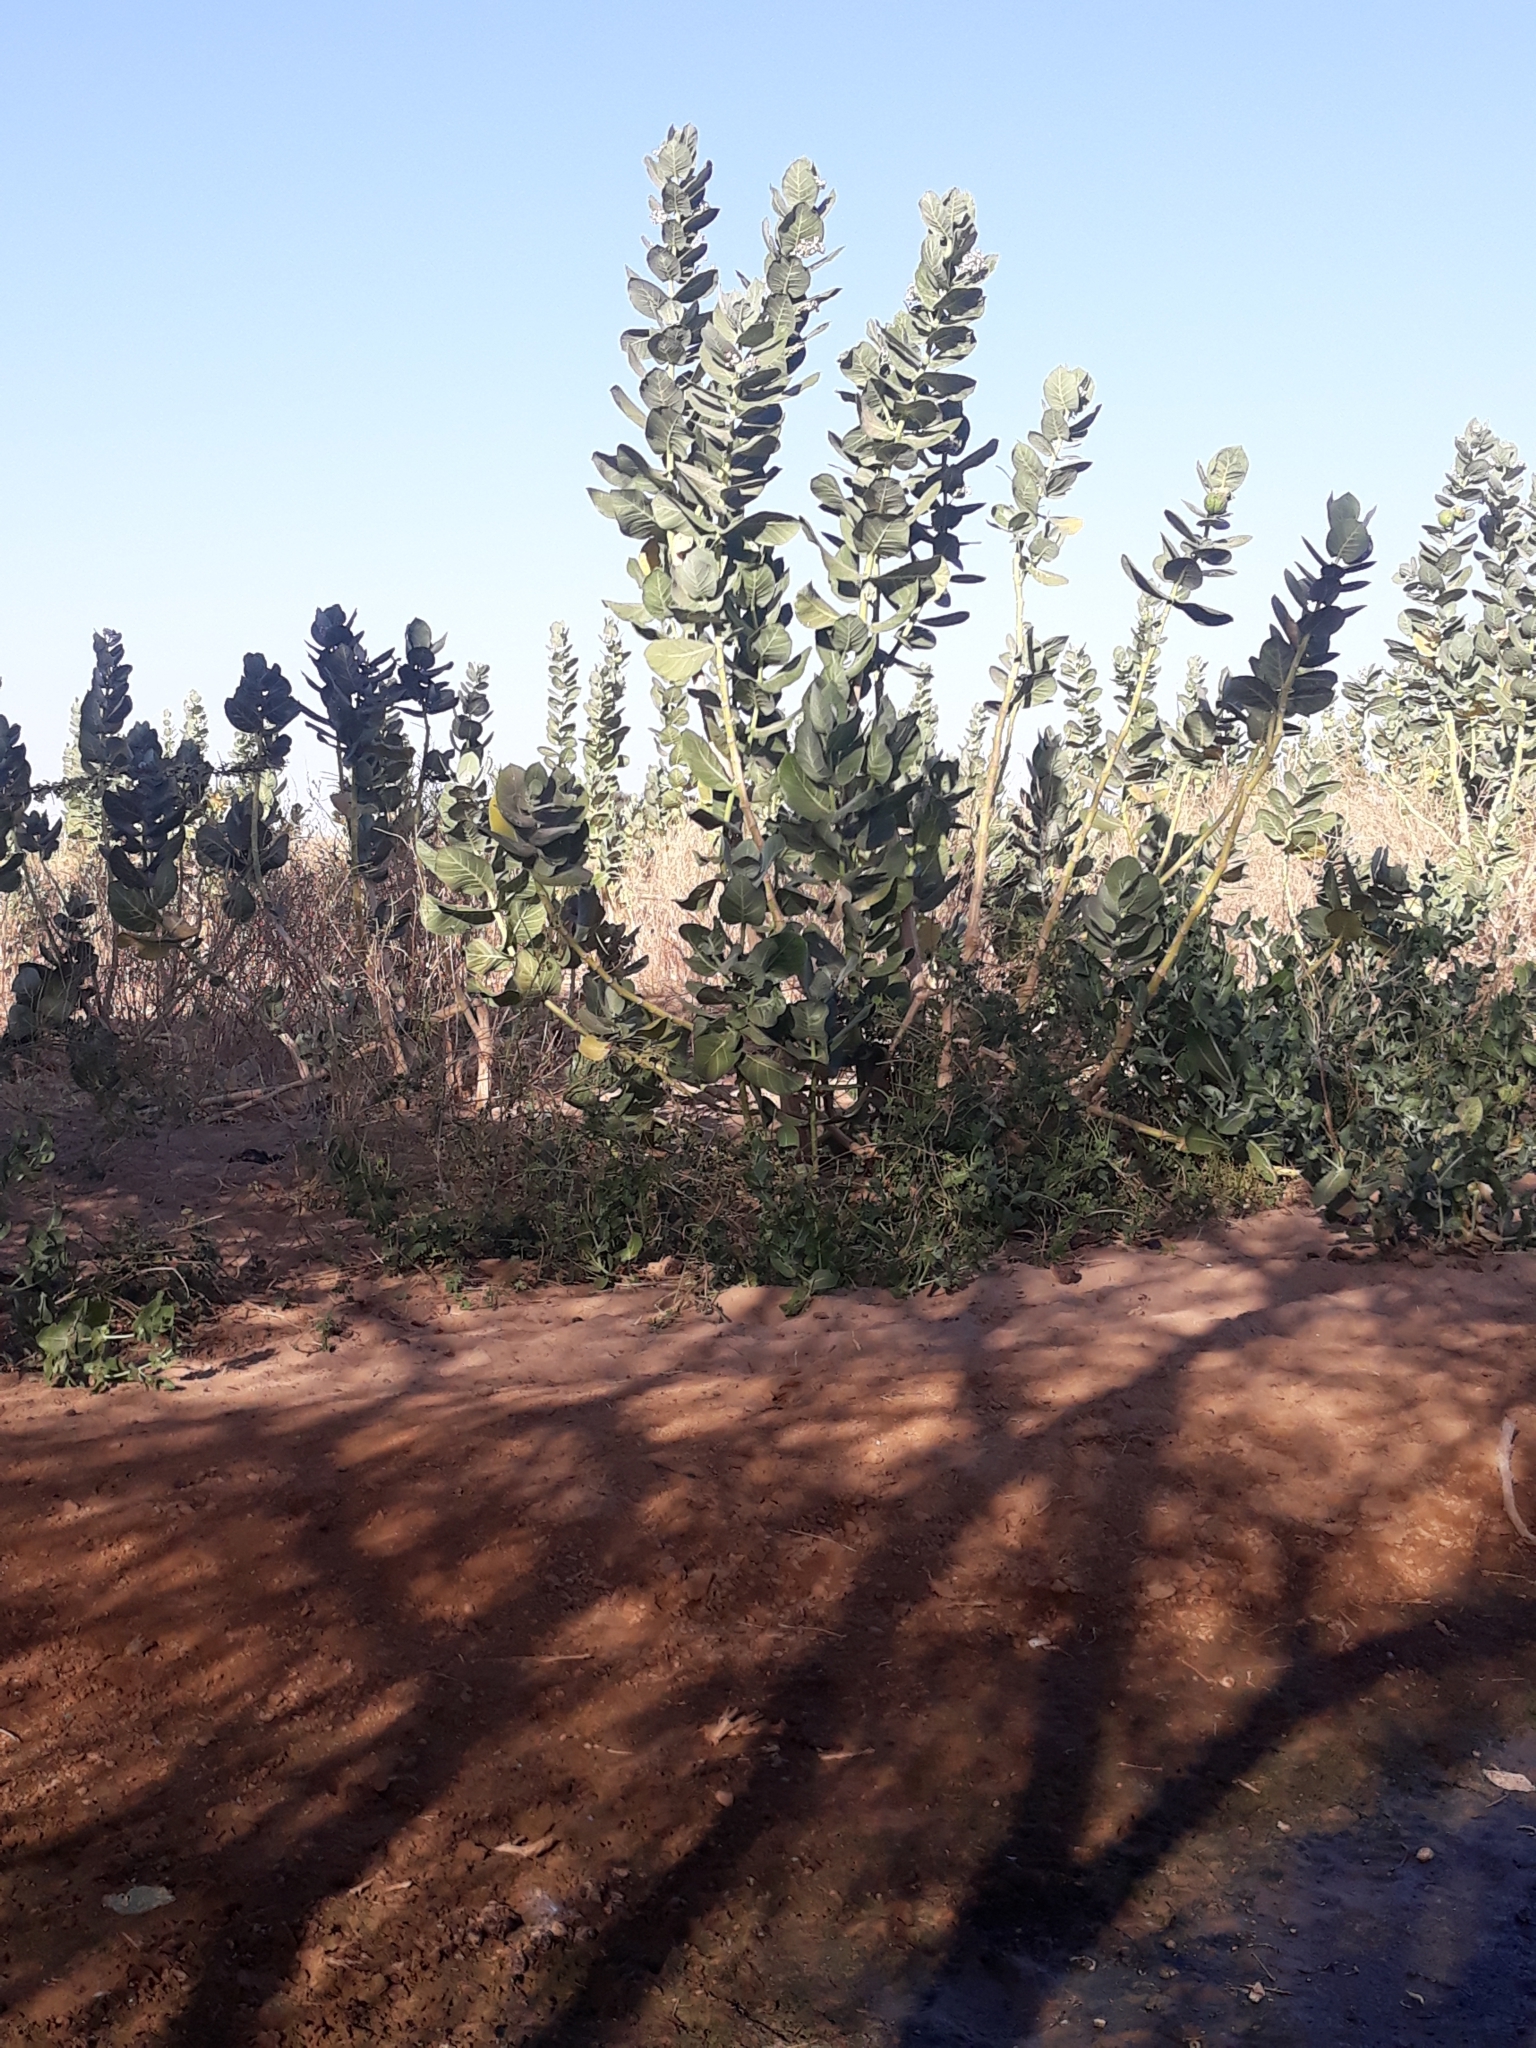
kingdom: Plantae
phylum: Tracheophyta
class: Magnoliopsida
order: Gentianales
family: Apocynaceae
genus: Calotropis
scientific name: Calotropis procera
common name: Roostertree
